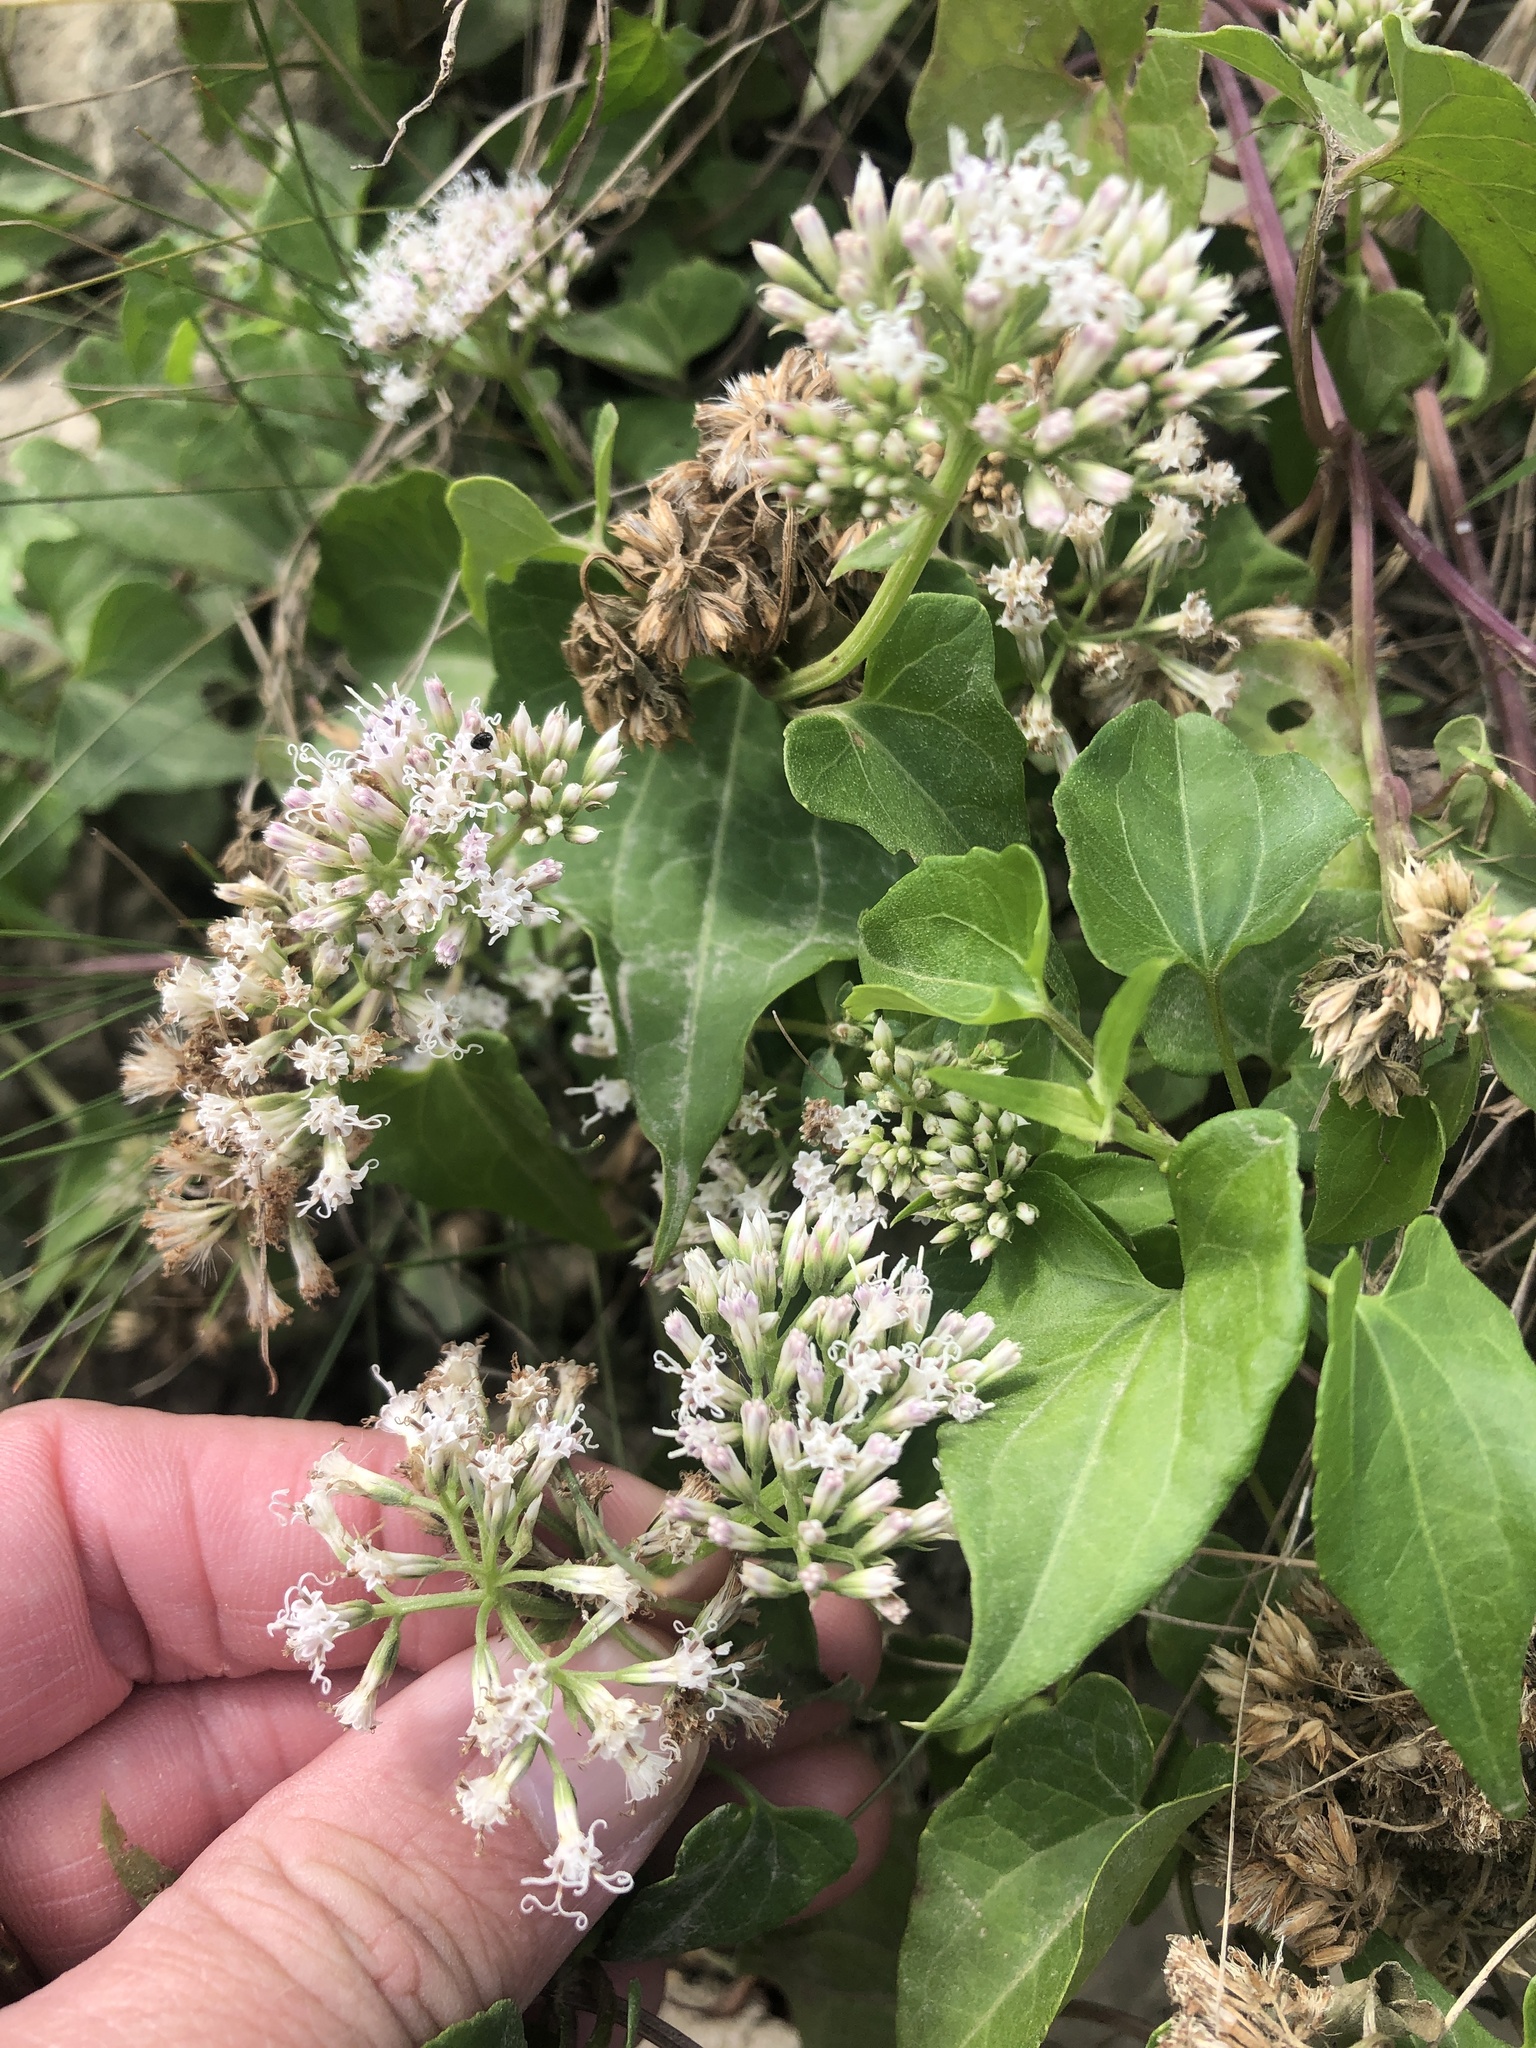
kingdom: Plantae
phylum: Tracheophyta
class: Magnoliopsida
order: Asterales
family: Asteraceae
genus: Mikania
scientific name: Mikania scandens
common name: Climbing hempvine
